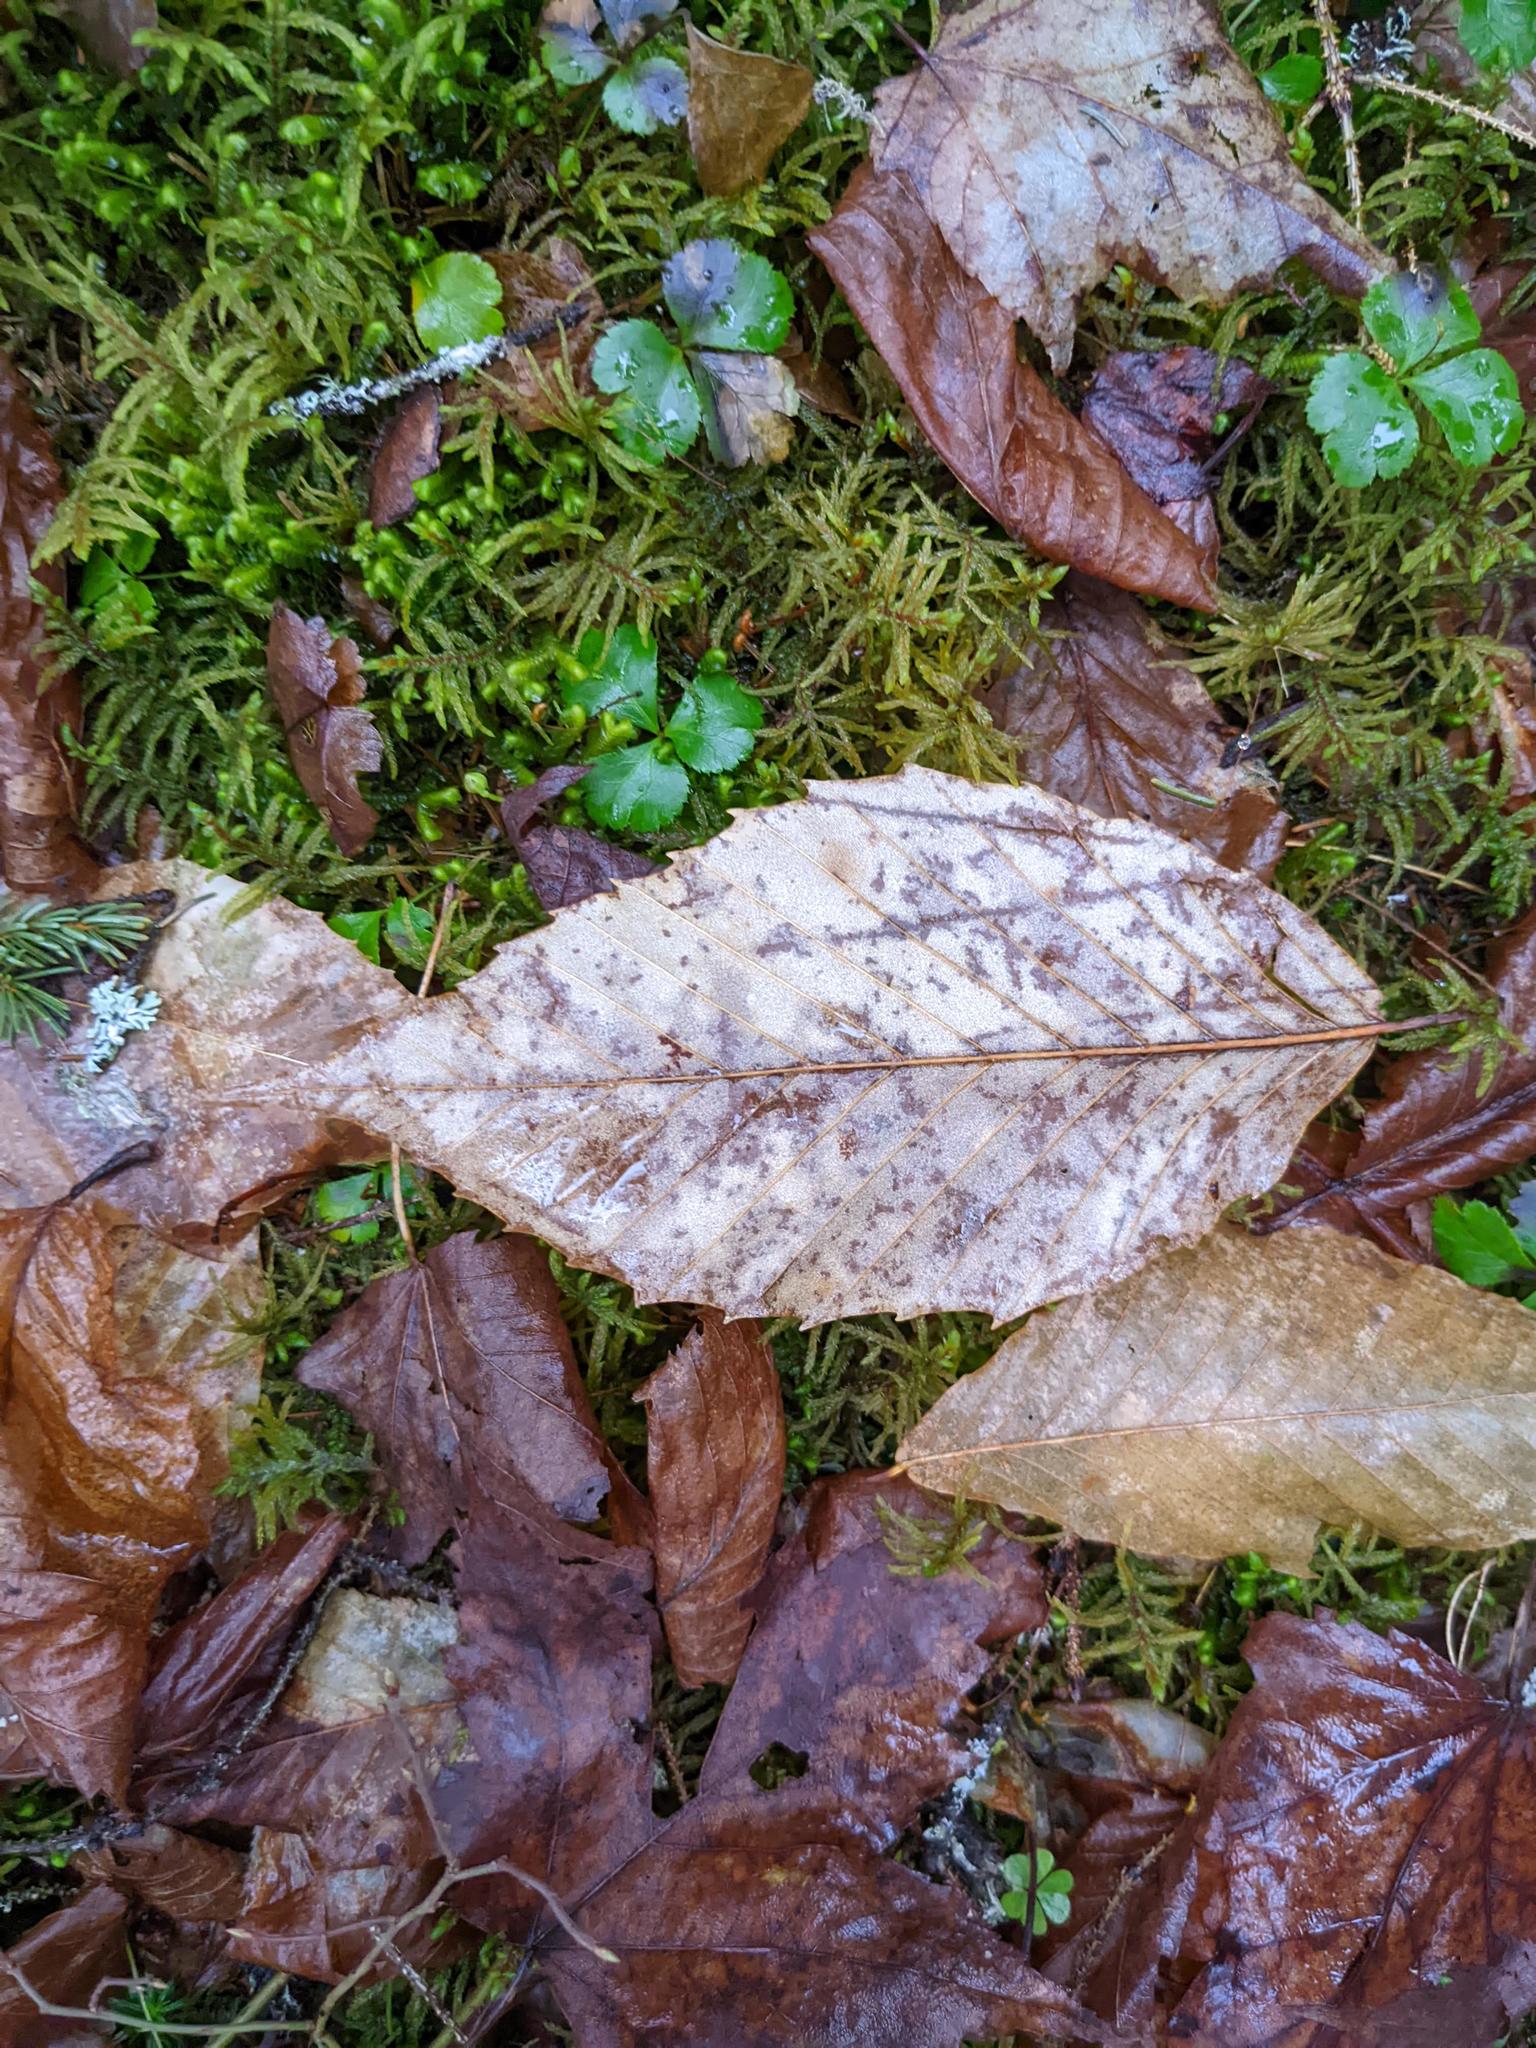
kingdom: Plantae
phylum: Tracheophyta
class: Magnoliopsida
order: Fagales
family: Fagaceae
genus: Fagus
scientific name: Fagus grandifolia
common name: American beech
